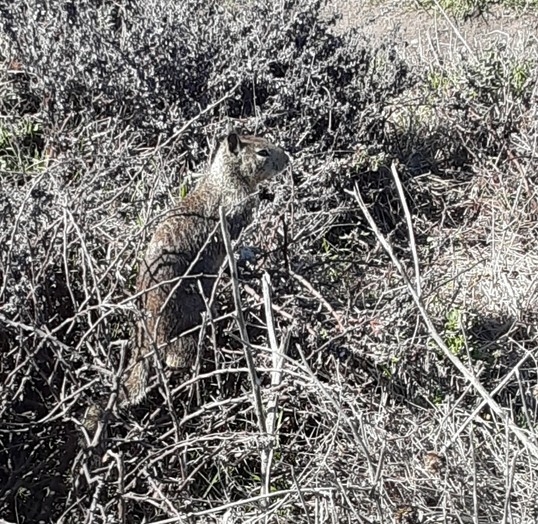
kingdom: Animalia
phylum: Chordata
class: Mammalia
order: Rodentia
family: Sciuridae
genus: Otospermophilus
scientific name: Otospermophilus beecheyi
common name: California ground squirrel
